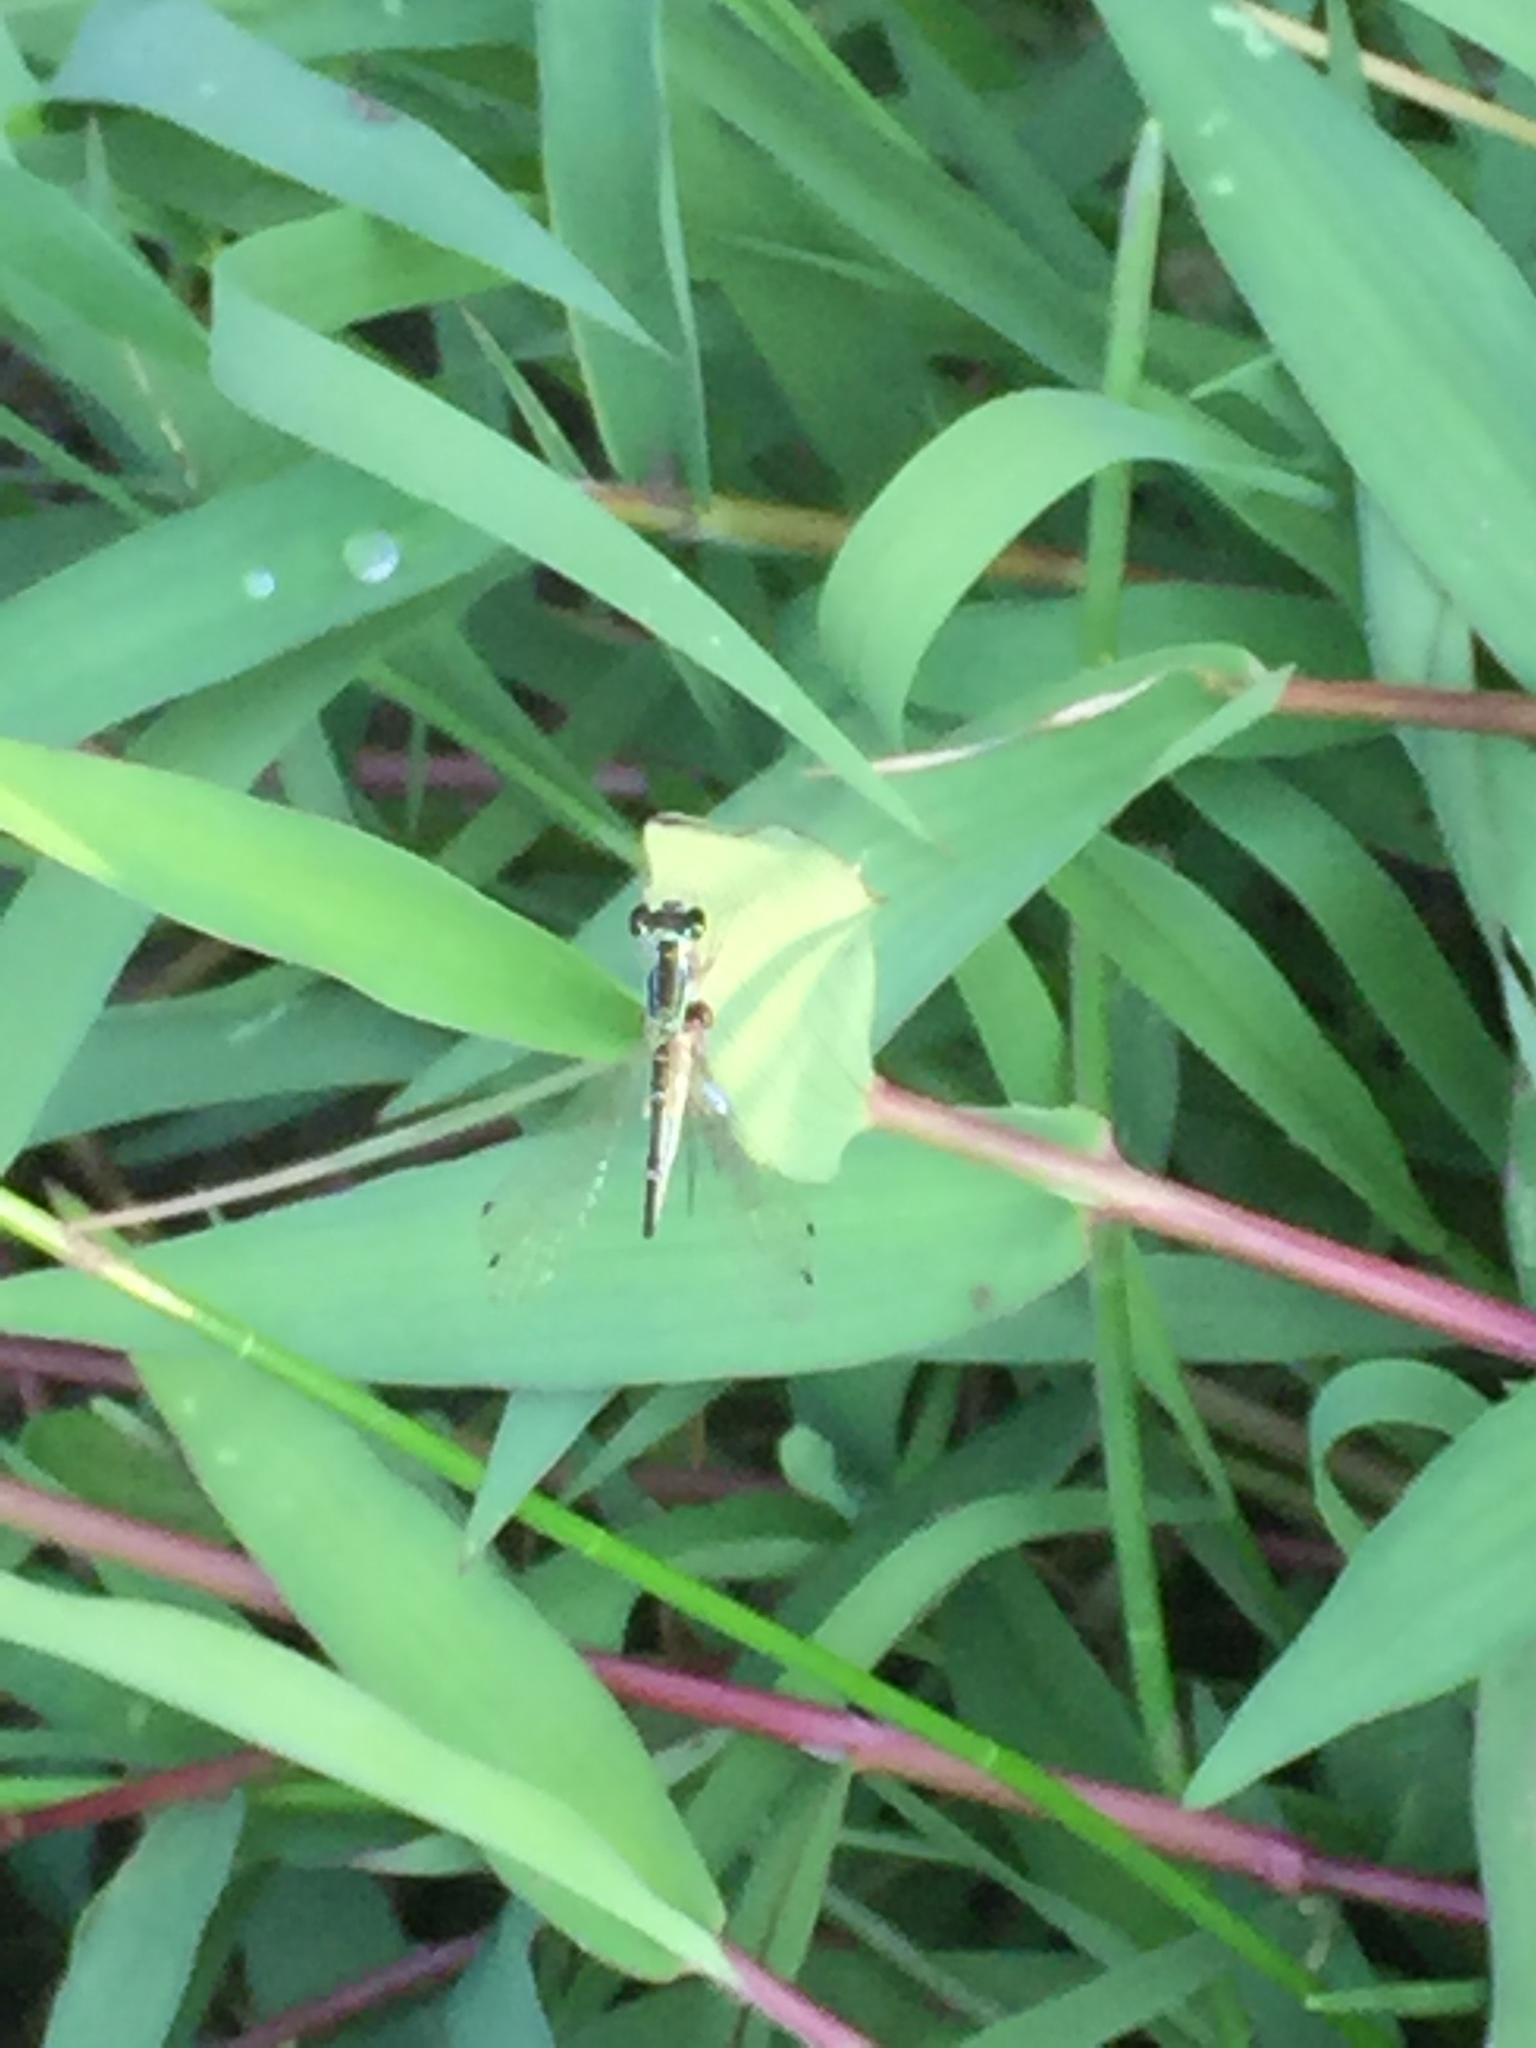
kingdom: Animalia
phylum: Arthropoda
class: Insecta
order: Odonata
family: Coenagrionidae
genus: Ischnura
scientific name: Ischnura senegalensis
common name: Tropical bluetail
